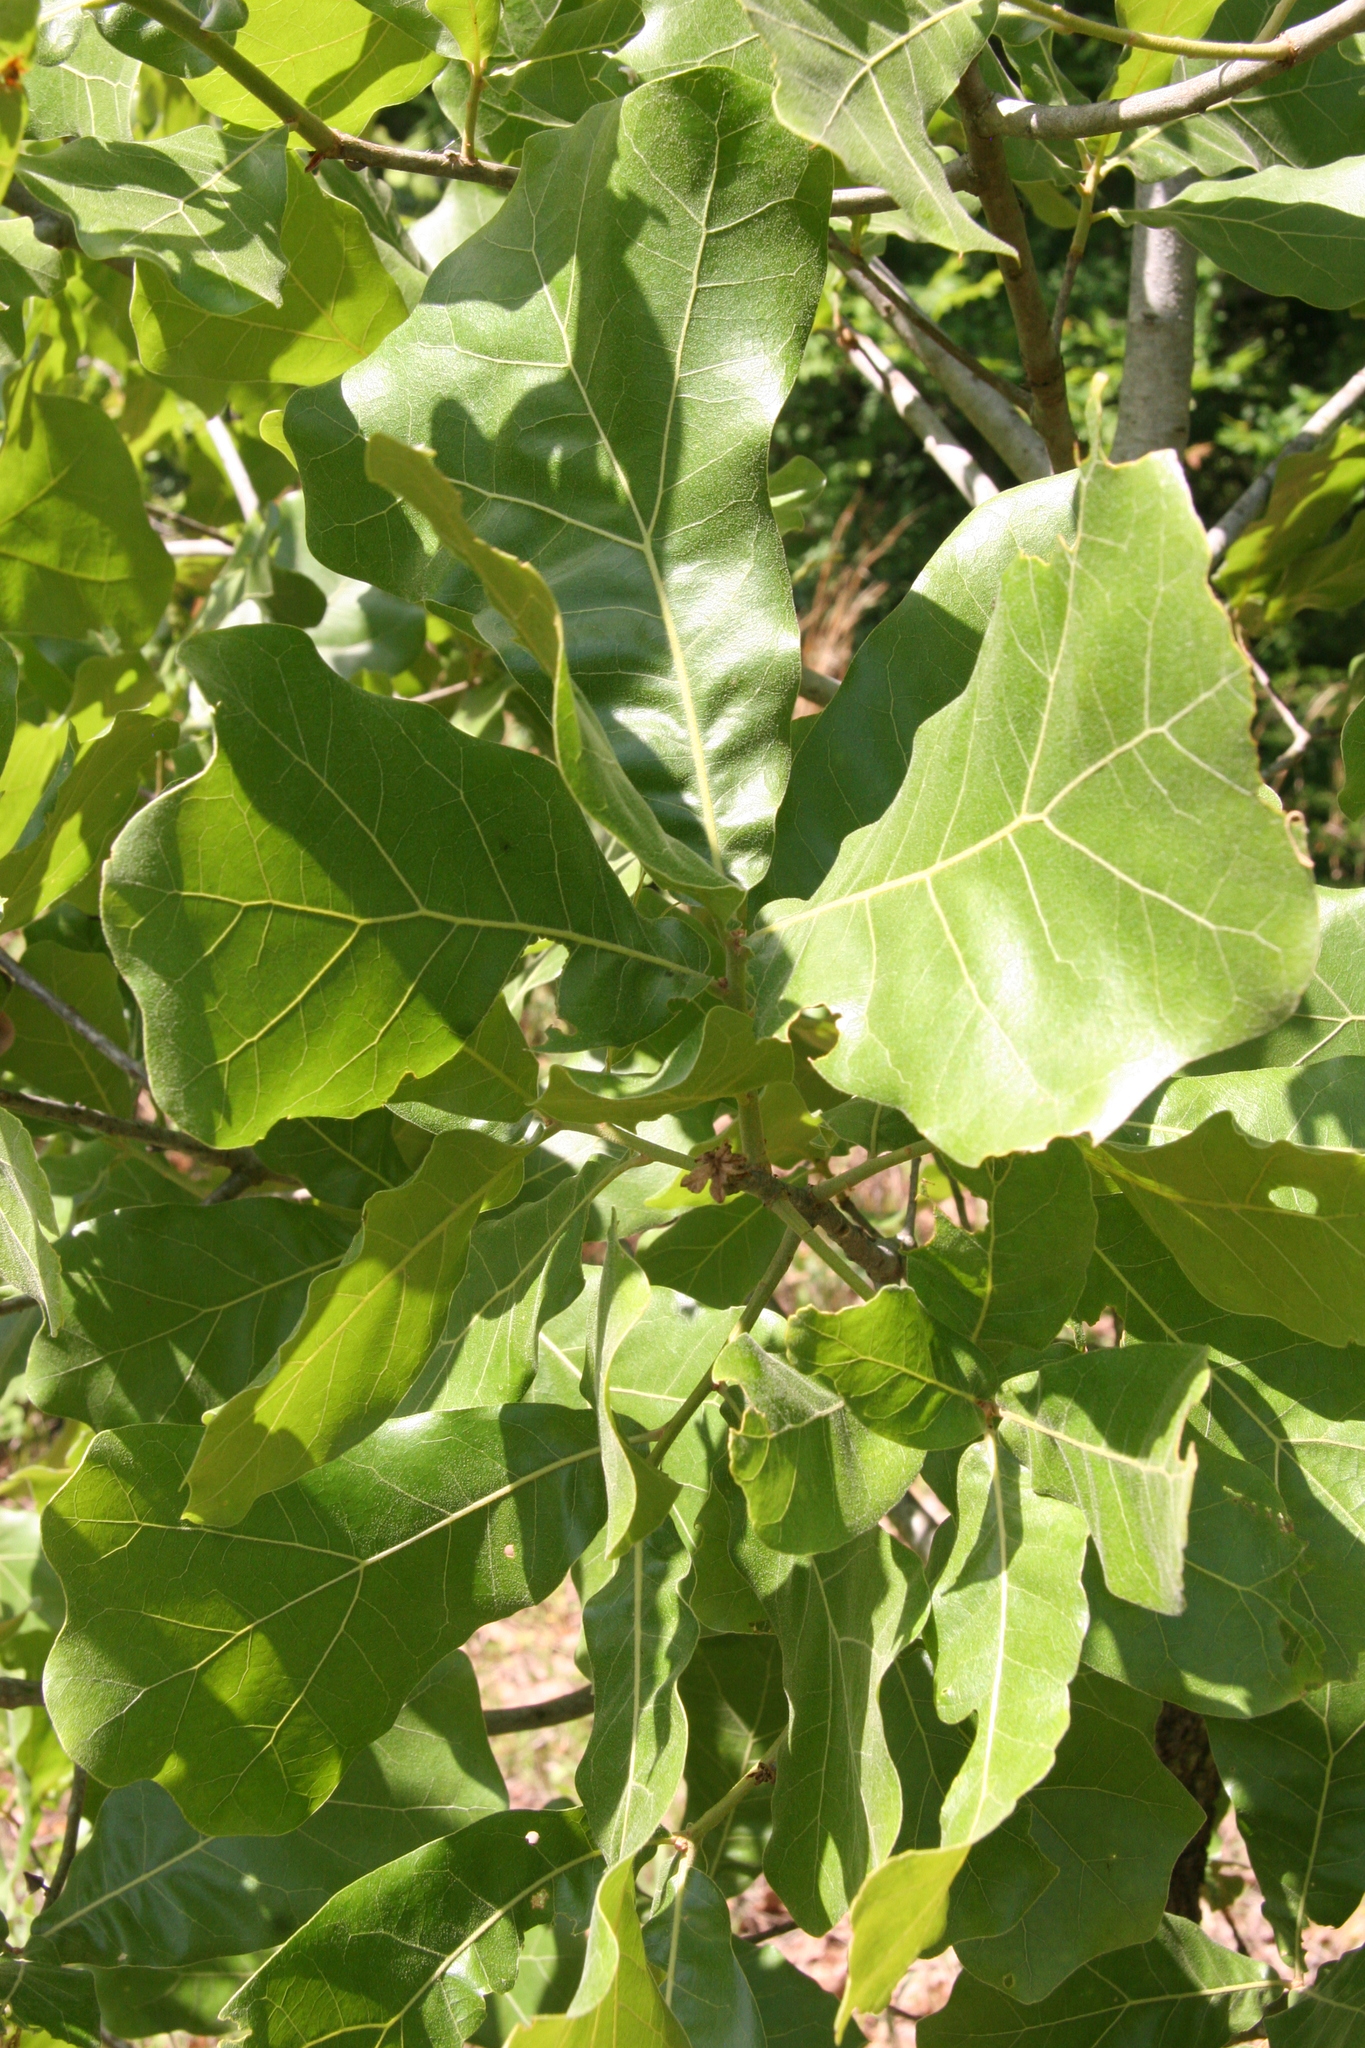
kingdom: Plantae
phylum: Tracheophyta
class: Magnoliopsida
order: Fagales
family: Fagaceae
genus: Quercus
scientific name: Quercus marilandica
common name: Blackjack oak
